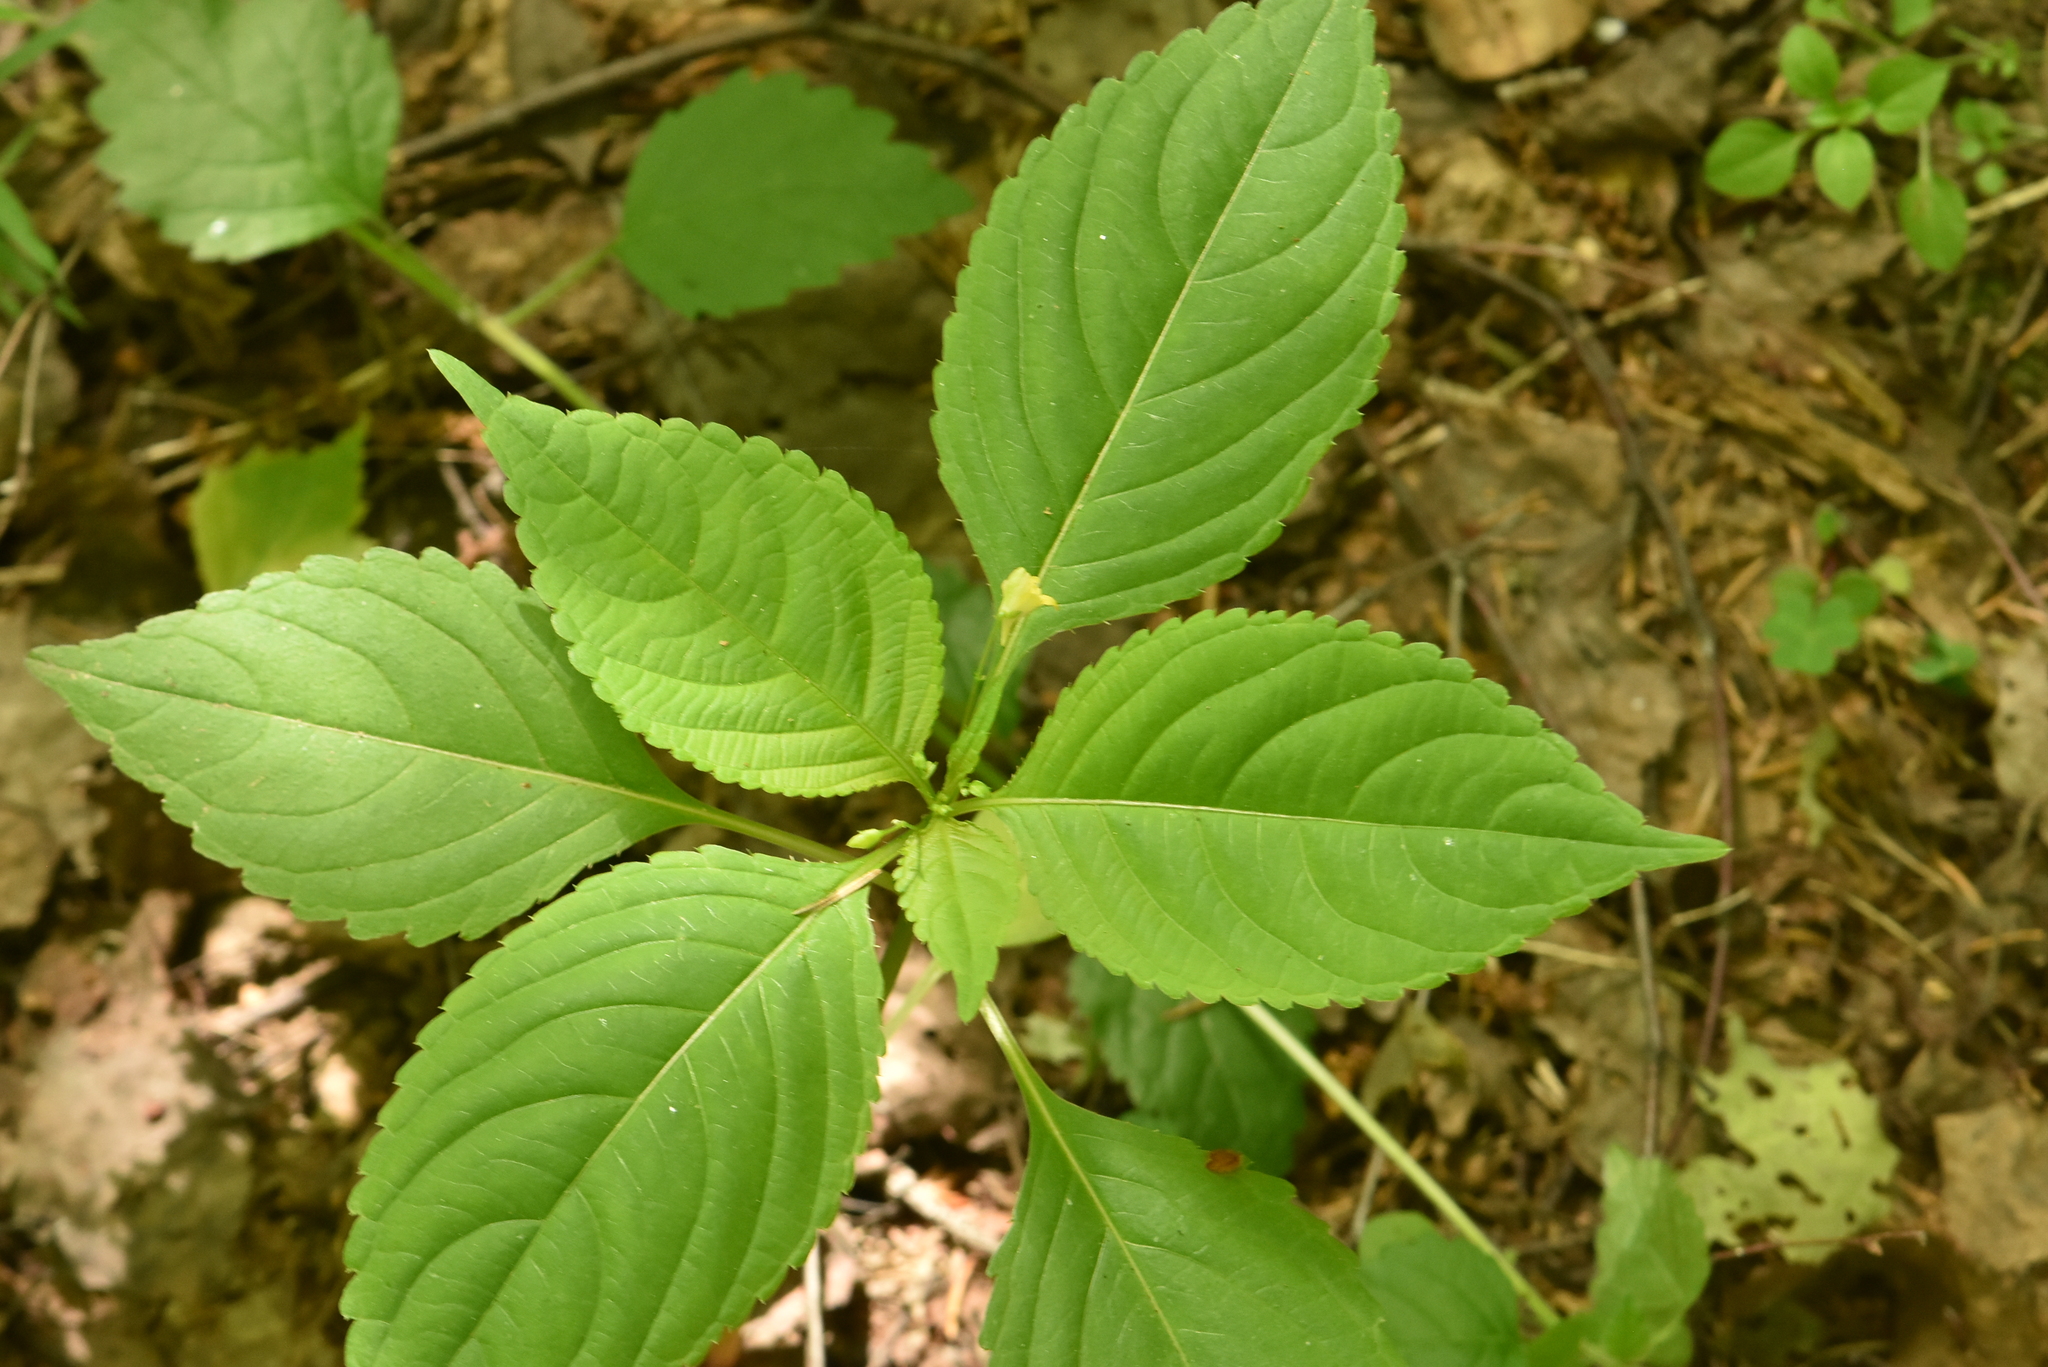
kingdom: Plantae
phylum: Tracheophyta
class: Magnoliopsida
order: Ericales
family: Balsaminaceae
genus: Impatiens
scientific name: Impatiens parviflora
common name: Small balsam
